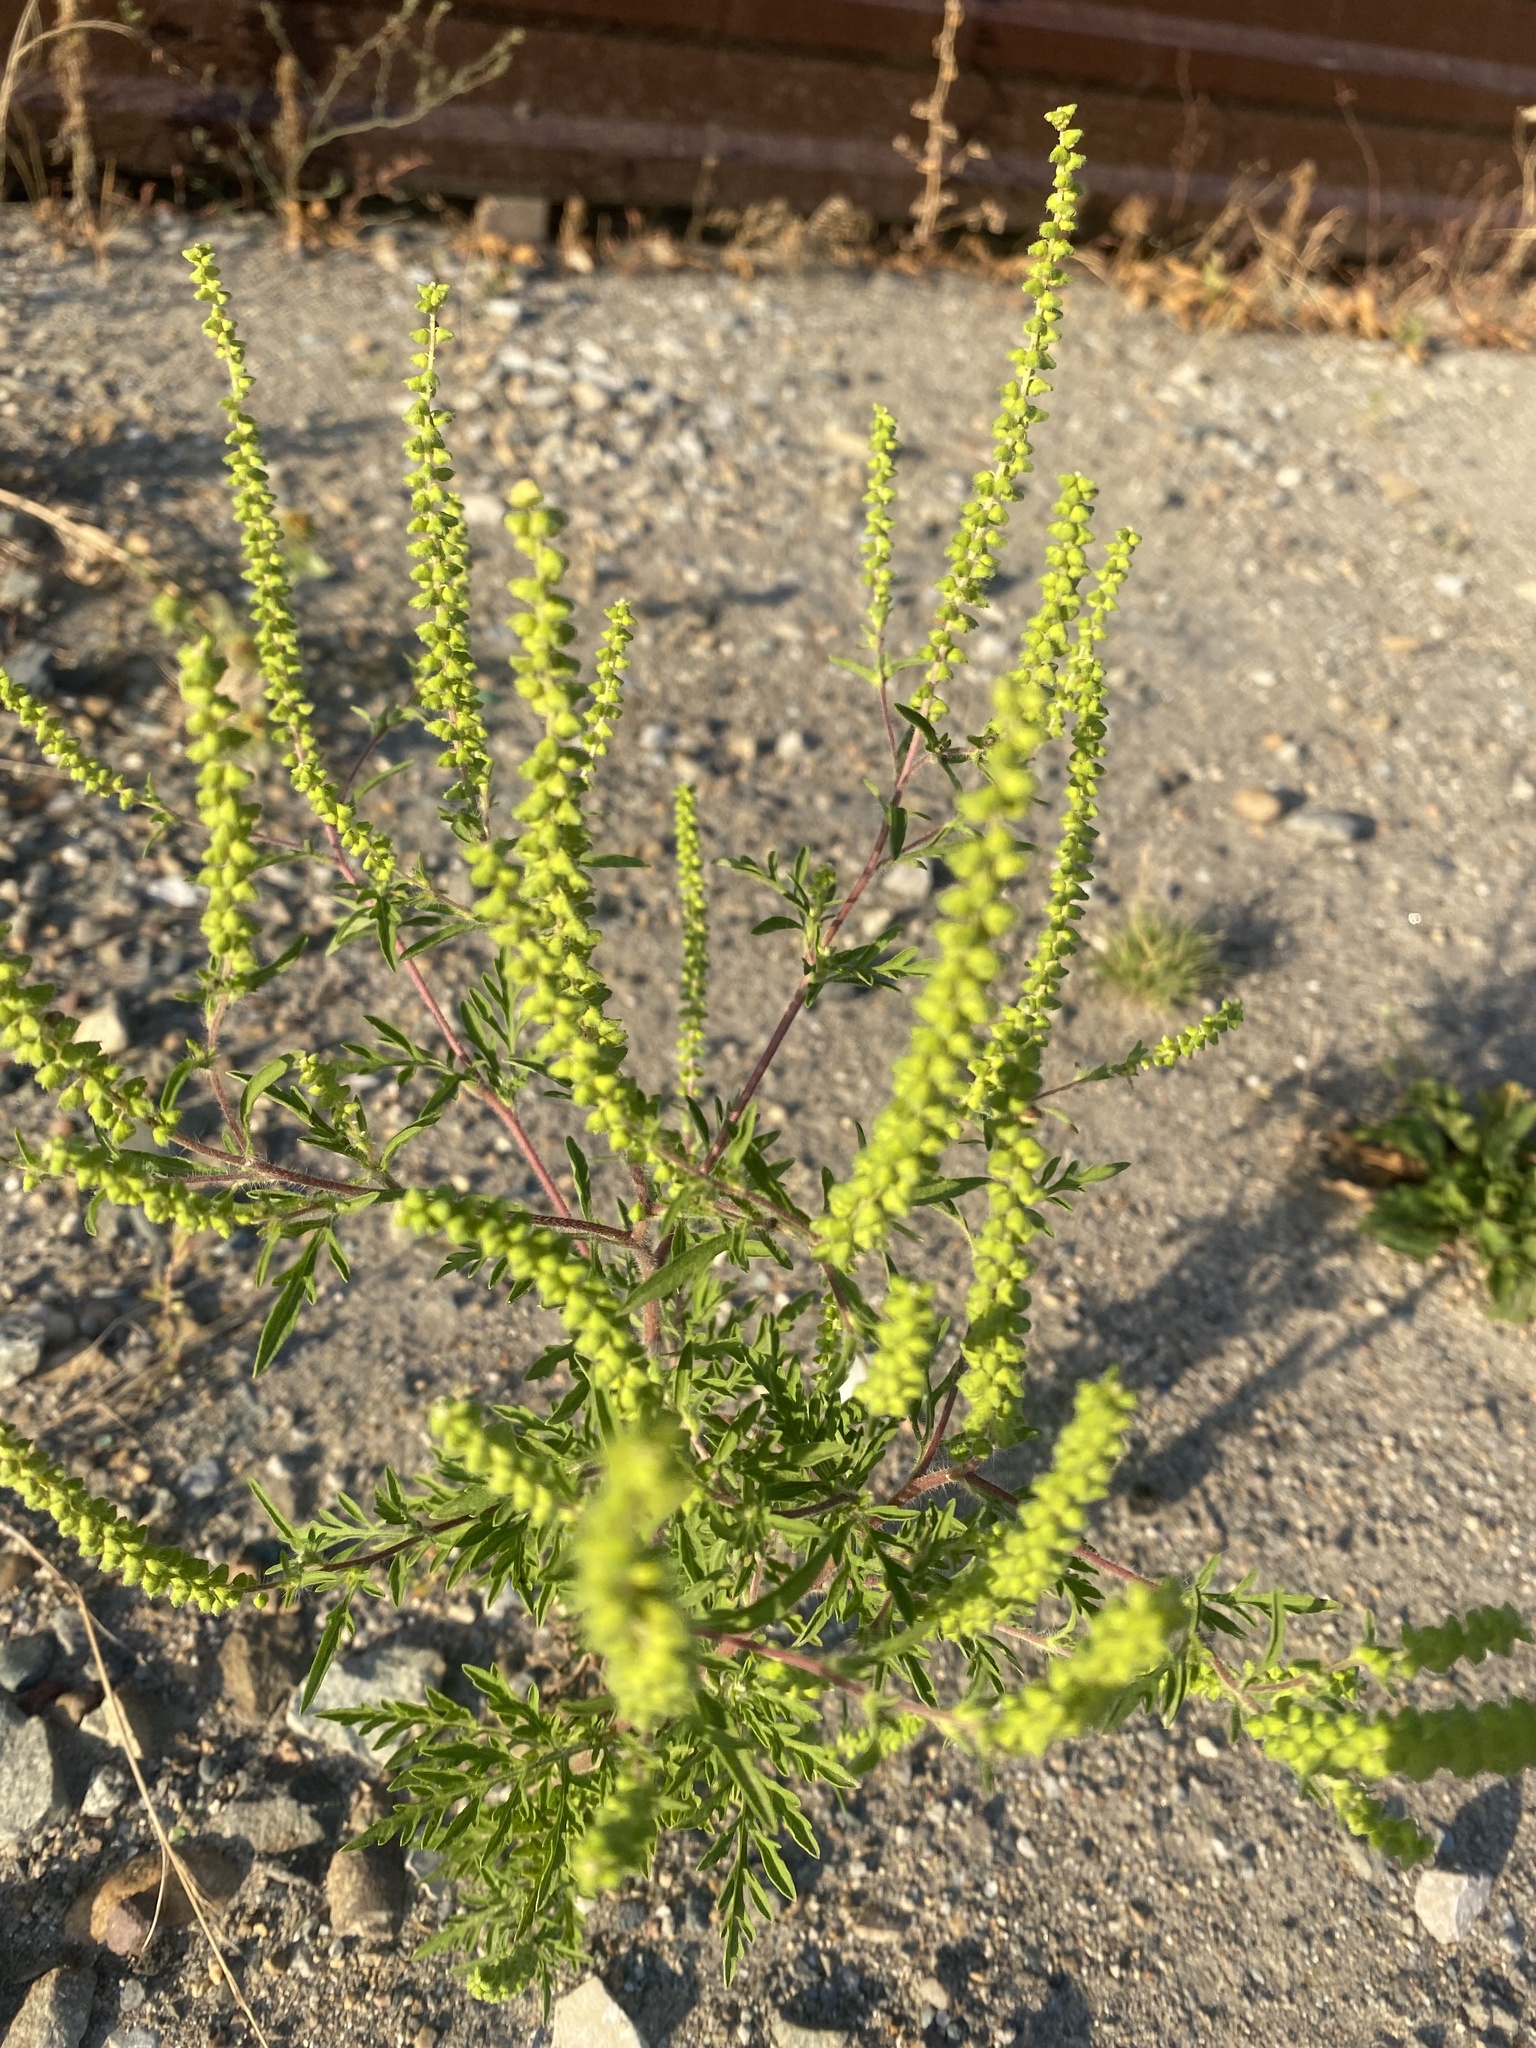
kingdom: Plantae
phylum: Tracheophyta
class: Magnoliopsida
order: Asterales
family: Asteraceae
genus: Ambrosia
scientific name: Ambrosia artemisiifolia
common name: Annual ragweed
